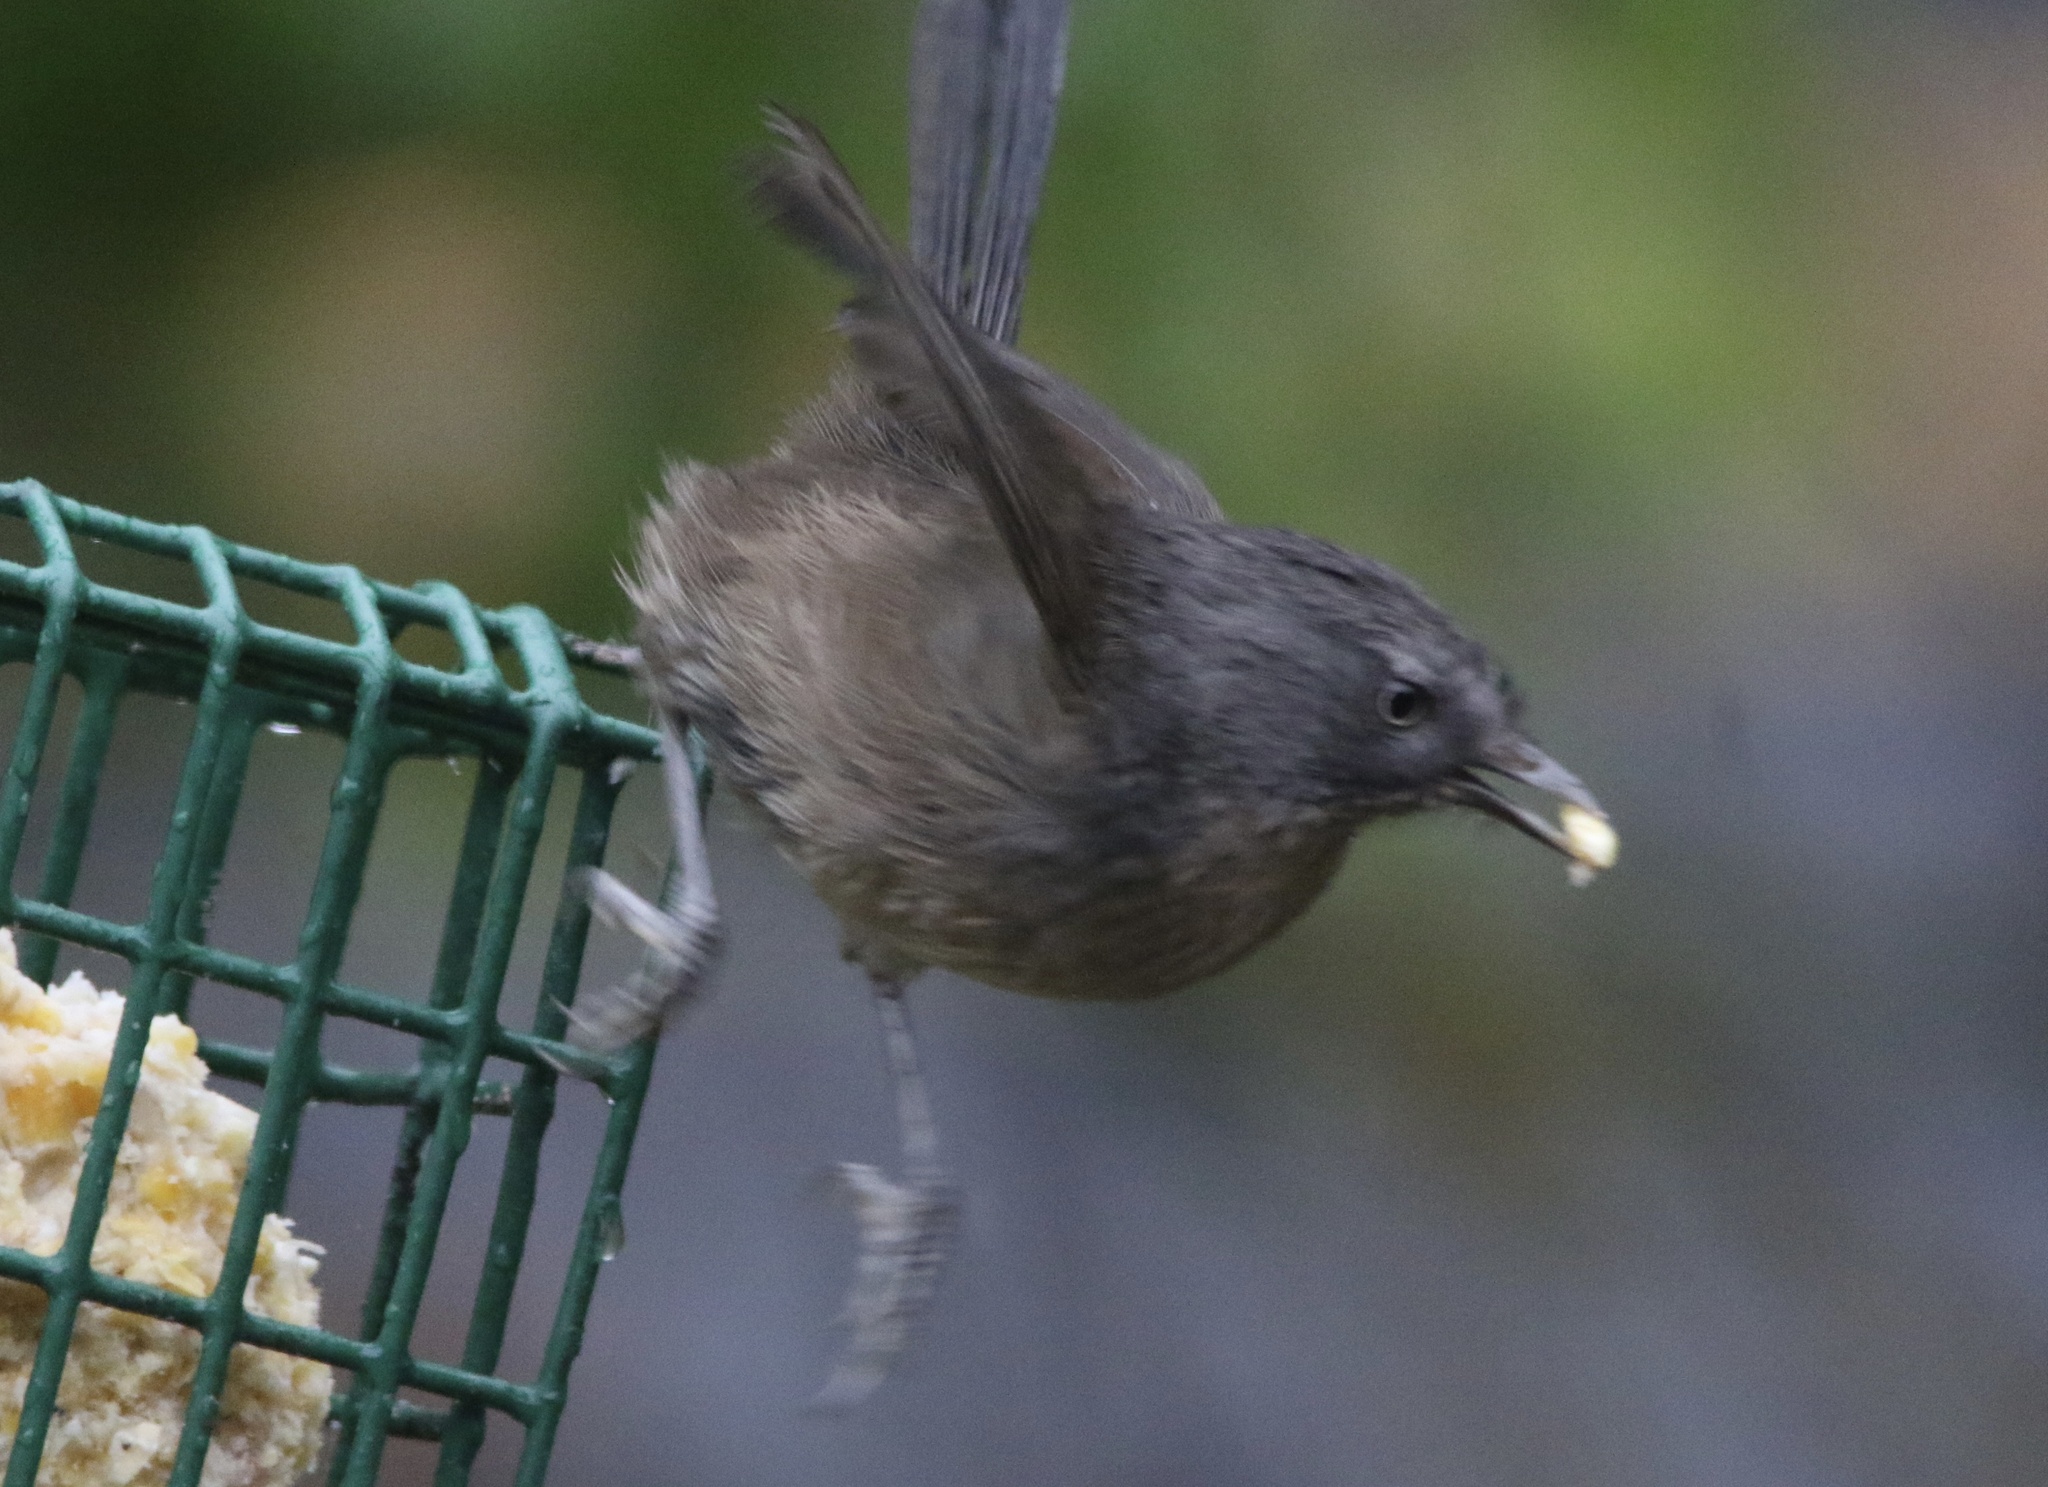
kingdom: Animalia
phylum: Chordata
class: Aves
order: Passeriformes
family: Sylviidae
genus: Chamaea
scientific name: Chamaea fasciata
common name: Wrentit
